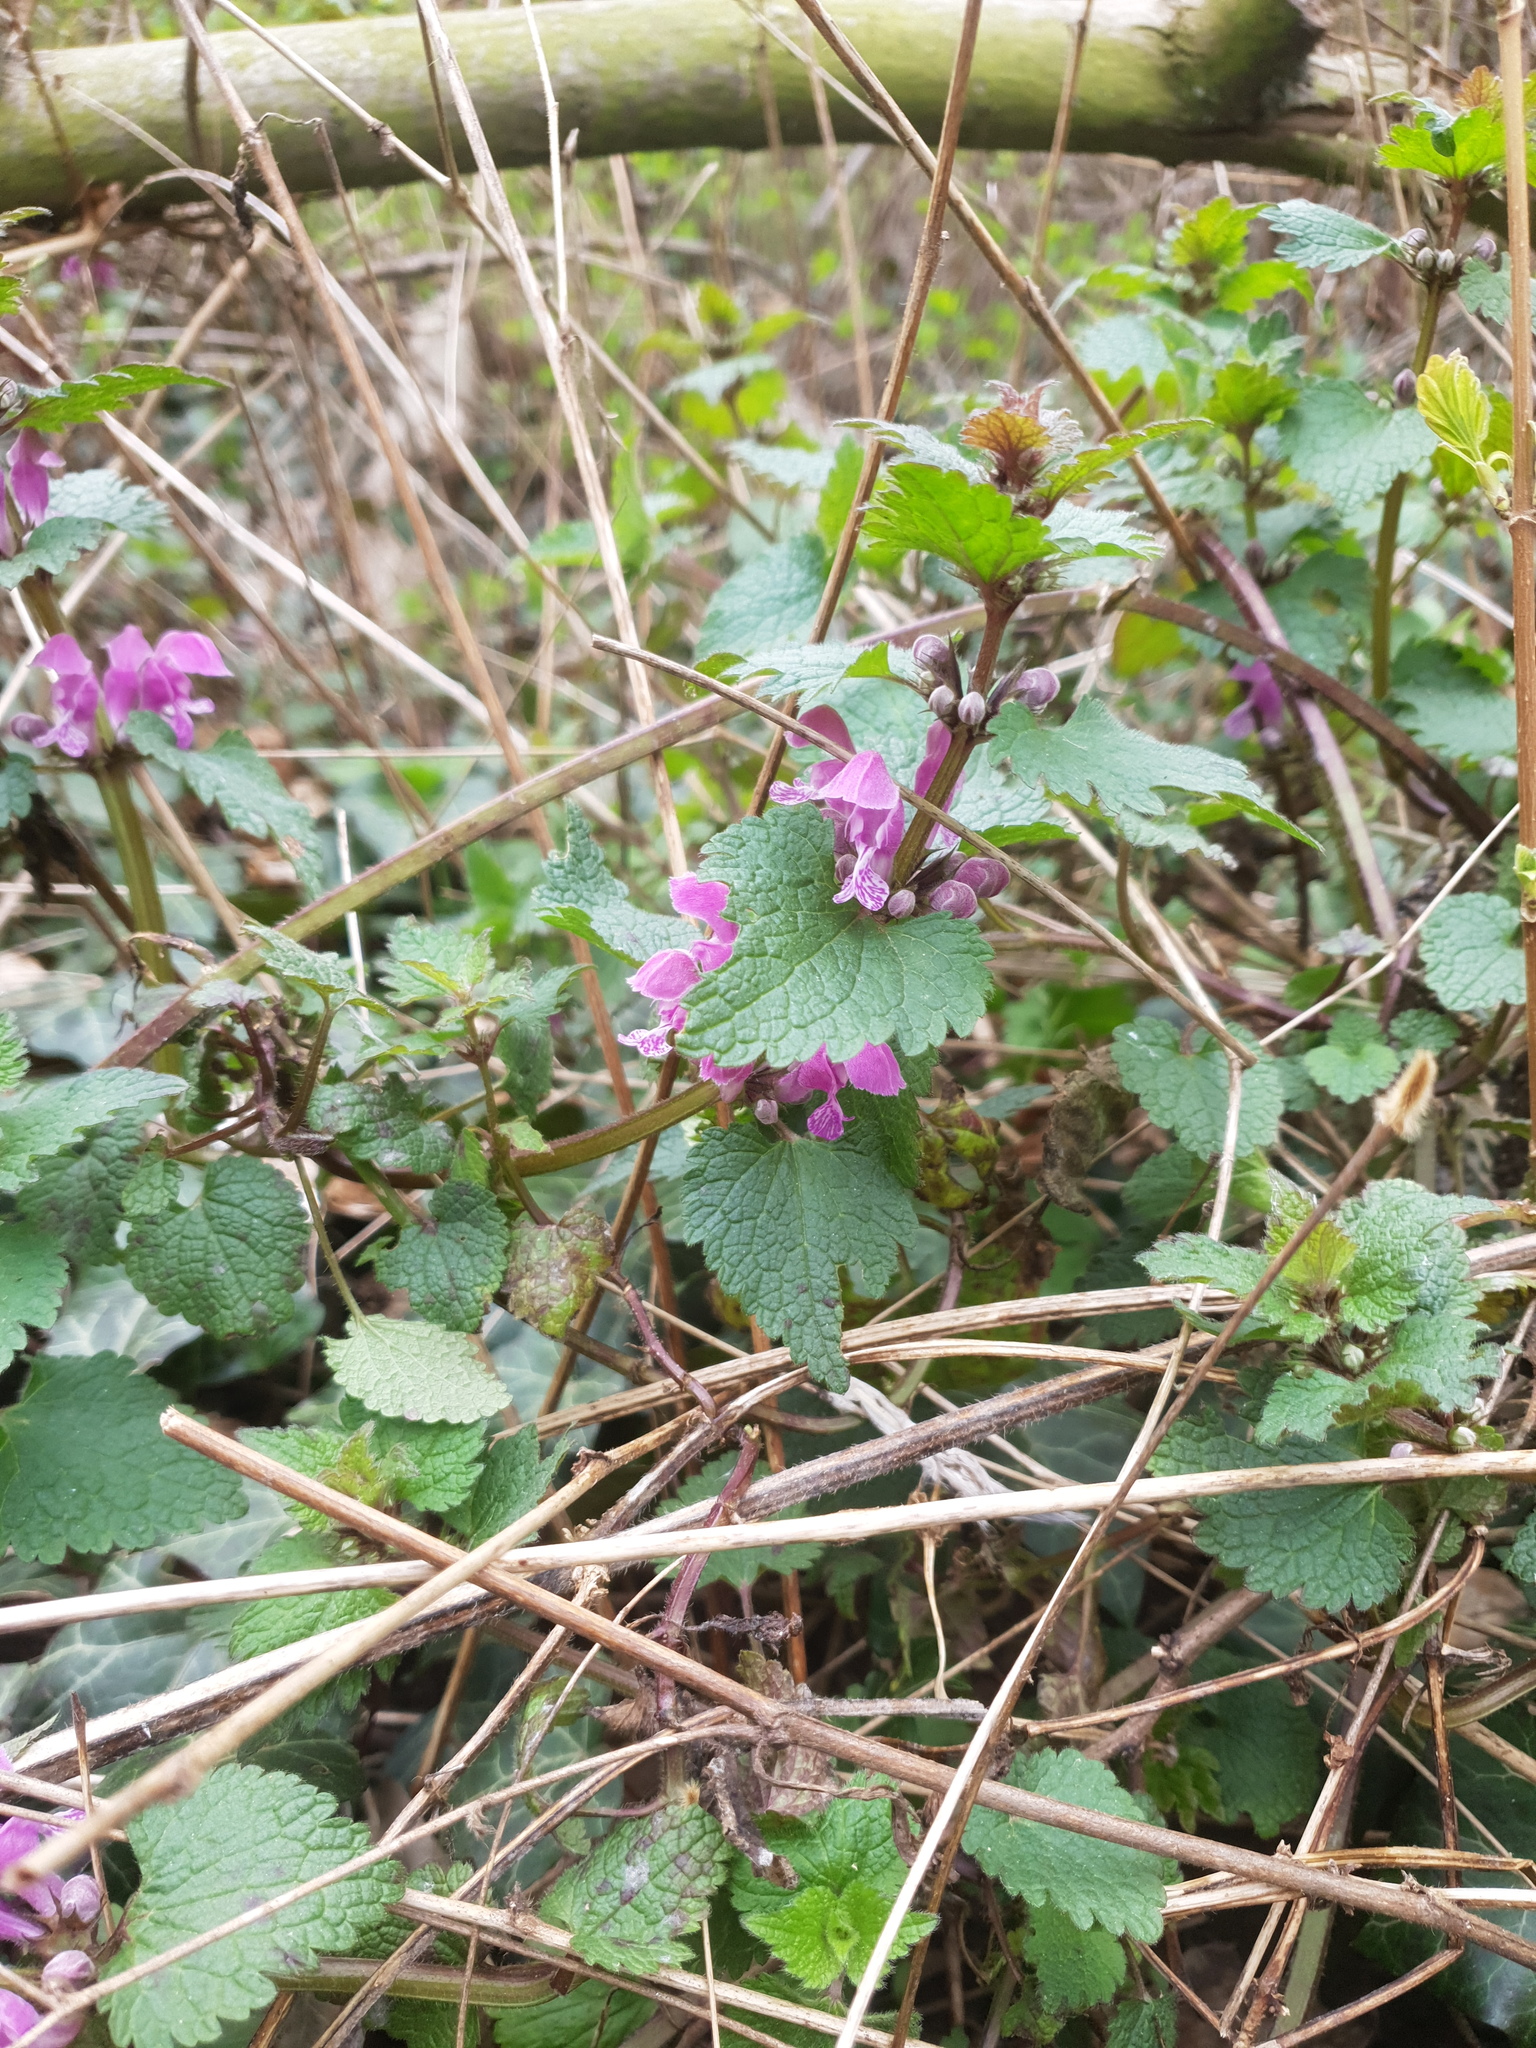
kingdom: Plantae
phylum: Tracheophyta
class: Magnoliopsida
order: Lamiales
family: Lamiaceae
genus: Lamium
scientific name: Lamium maculatum
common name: Spotted dead-nettle
